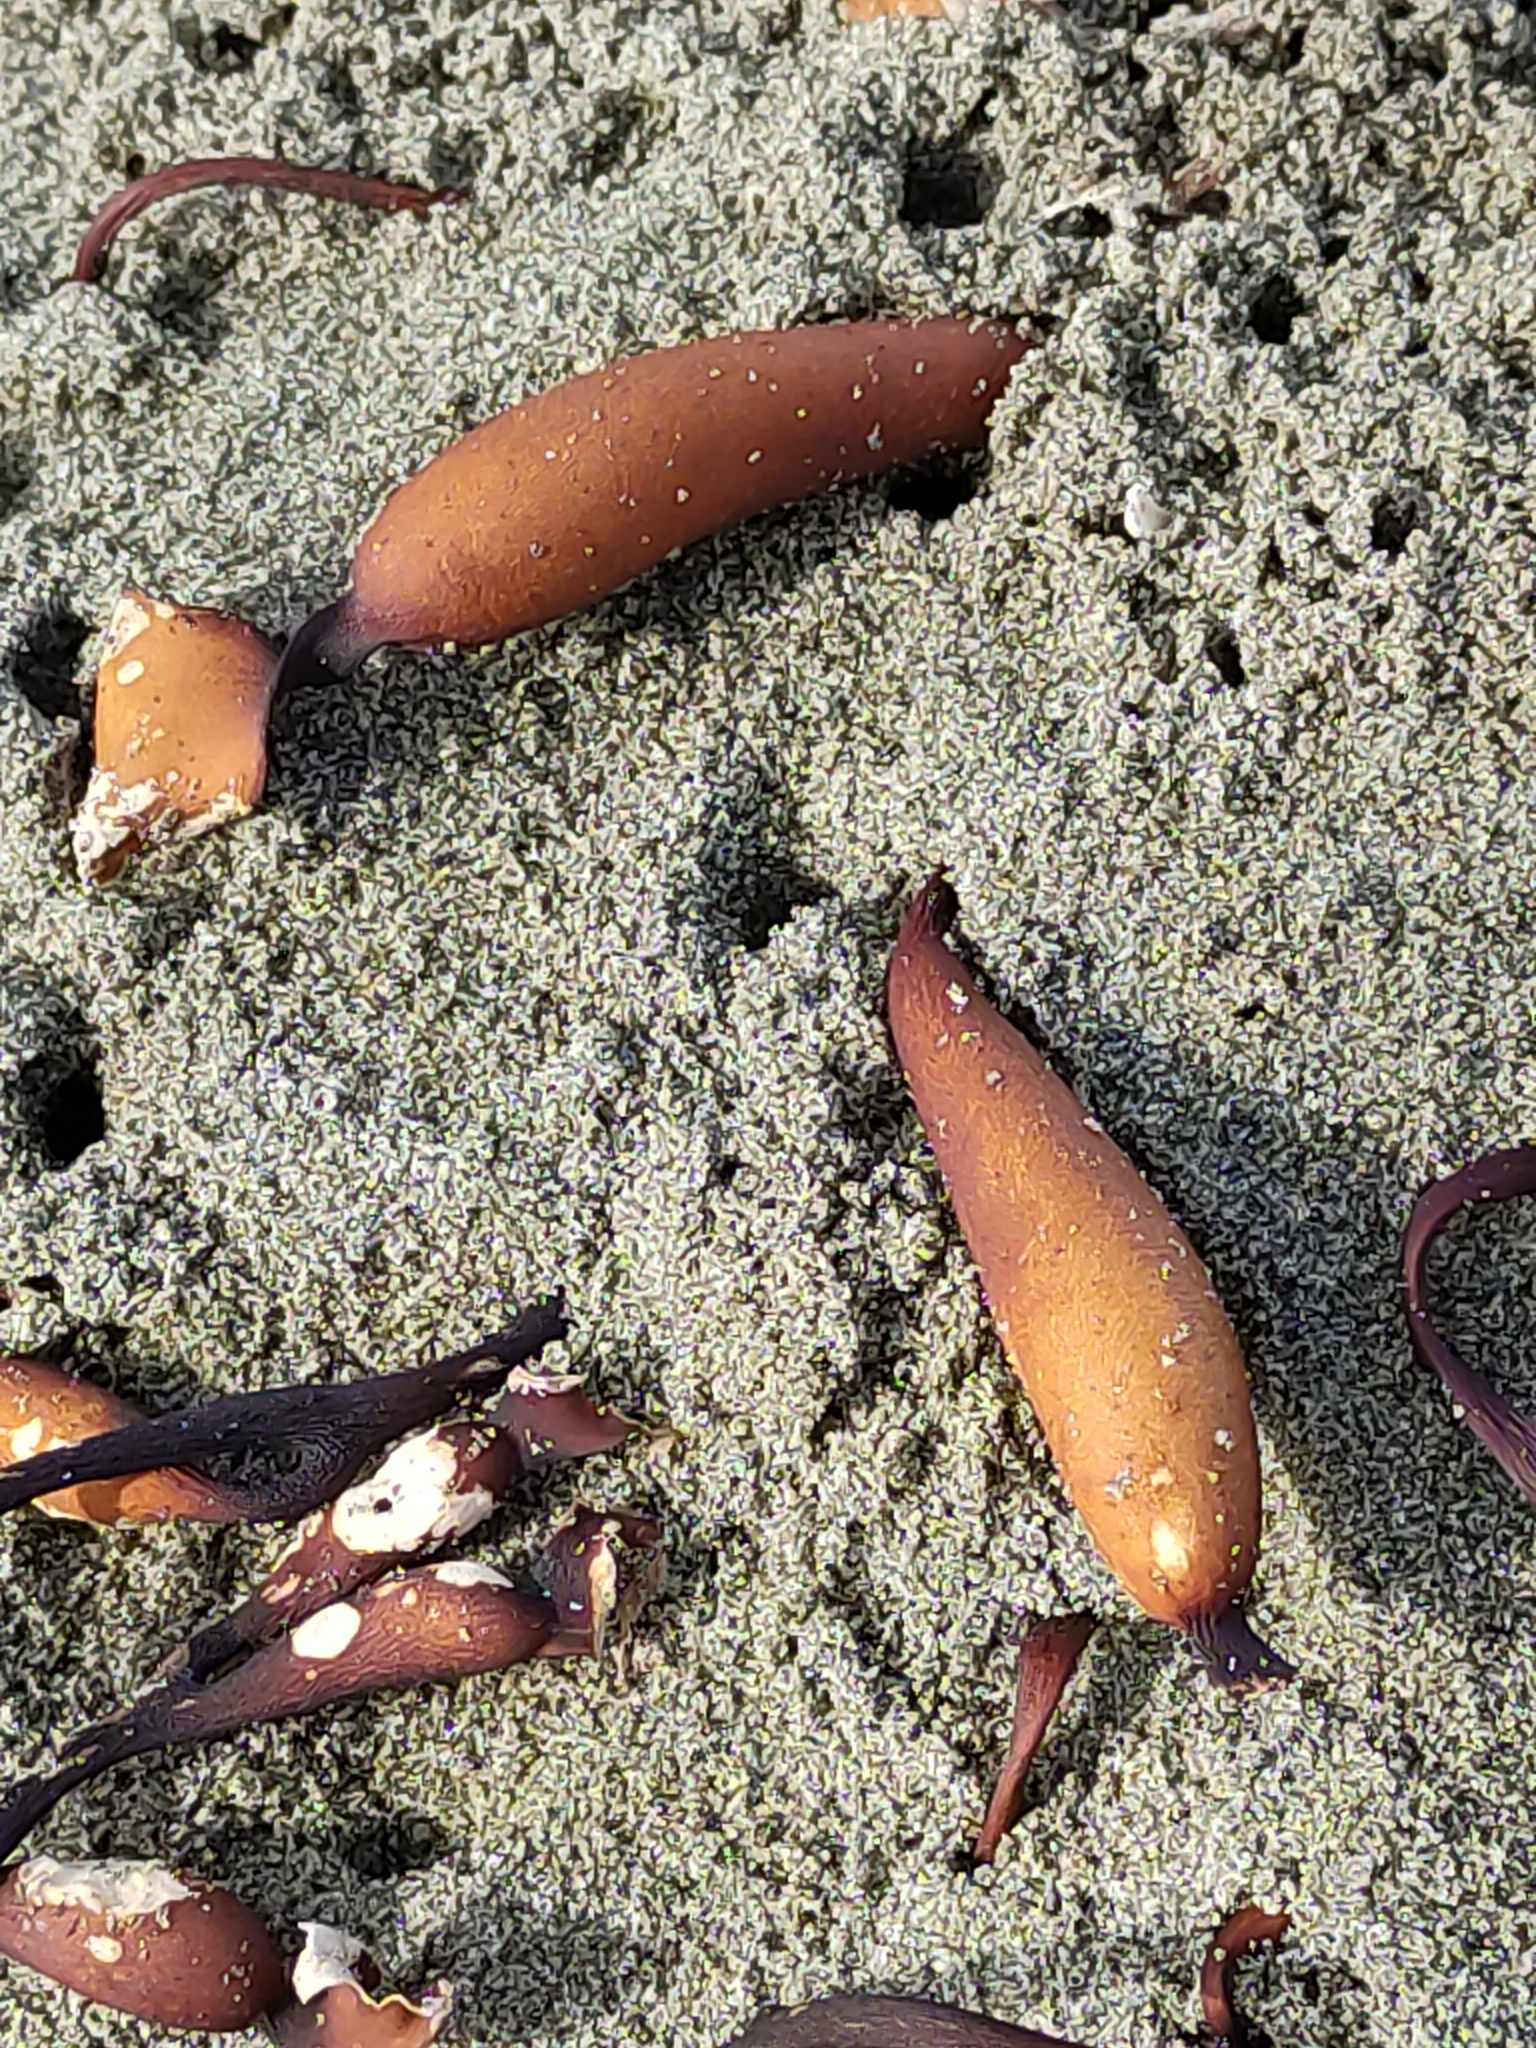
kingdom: Chromista
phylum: Ochrophyta
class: Phaeophyceae
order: Laminariales
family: Laminariaceae
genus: Macrocystis
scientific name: Macrocystis pyrifera
